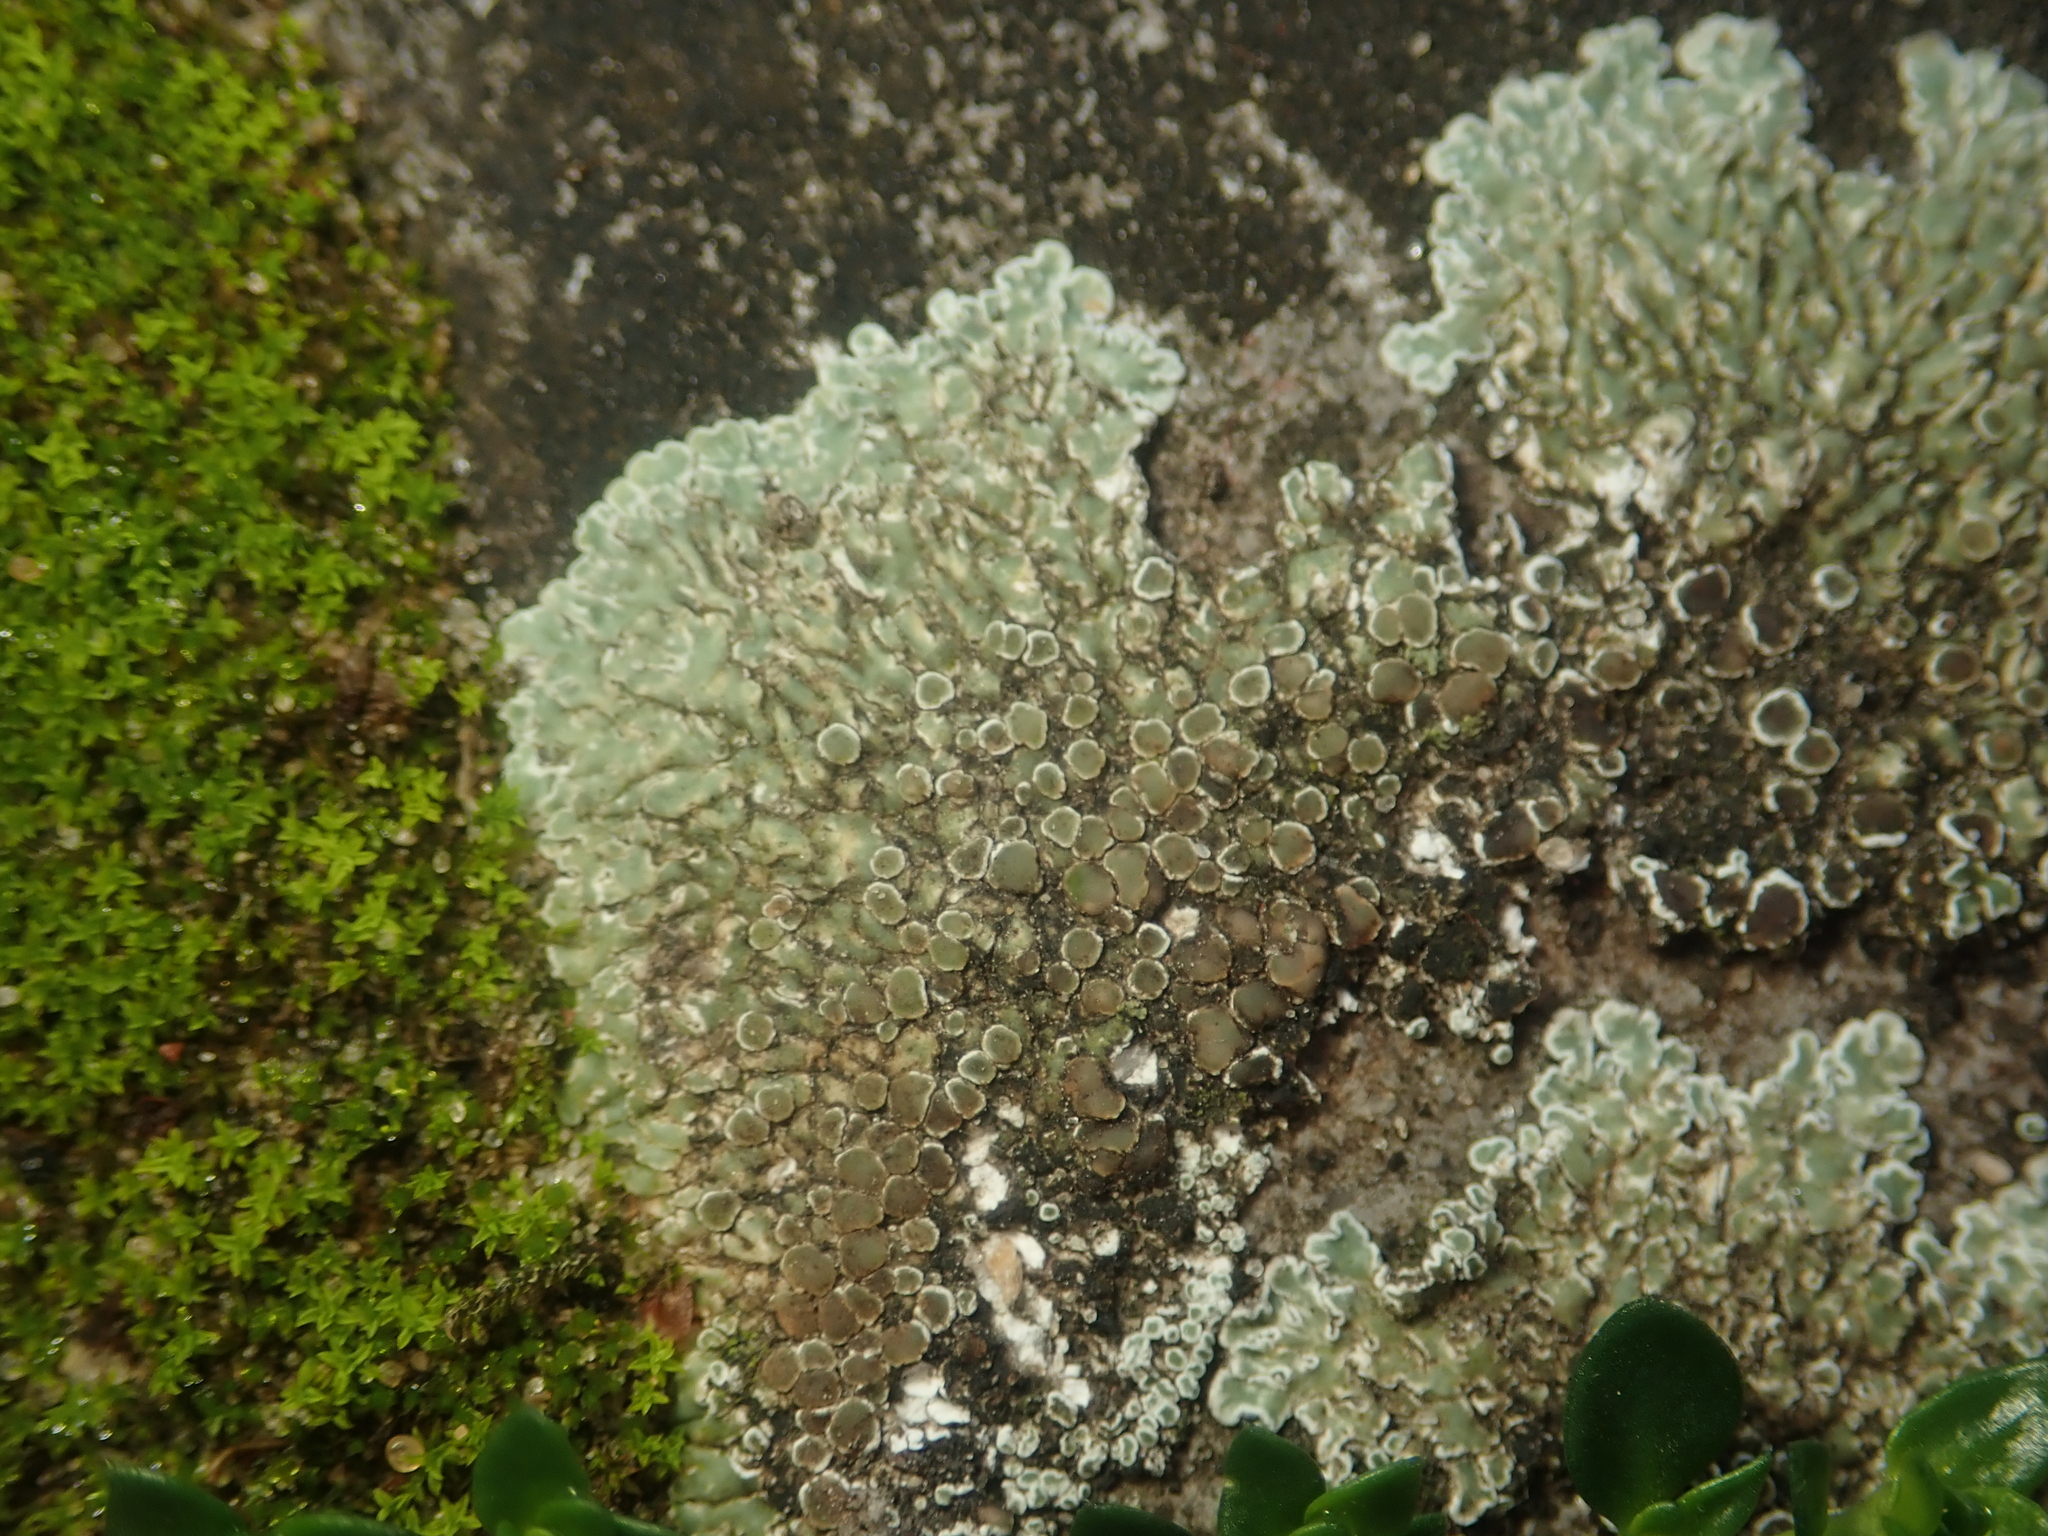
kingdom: Fungi
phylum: Ascomycota
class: Lecanoromycetes
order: Lecanorales
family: Lecanoraceae
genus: Protoparmeliopsis
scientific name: Protoparmeliopsis muralis
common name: Stonewall rim lichen
